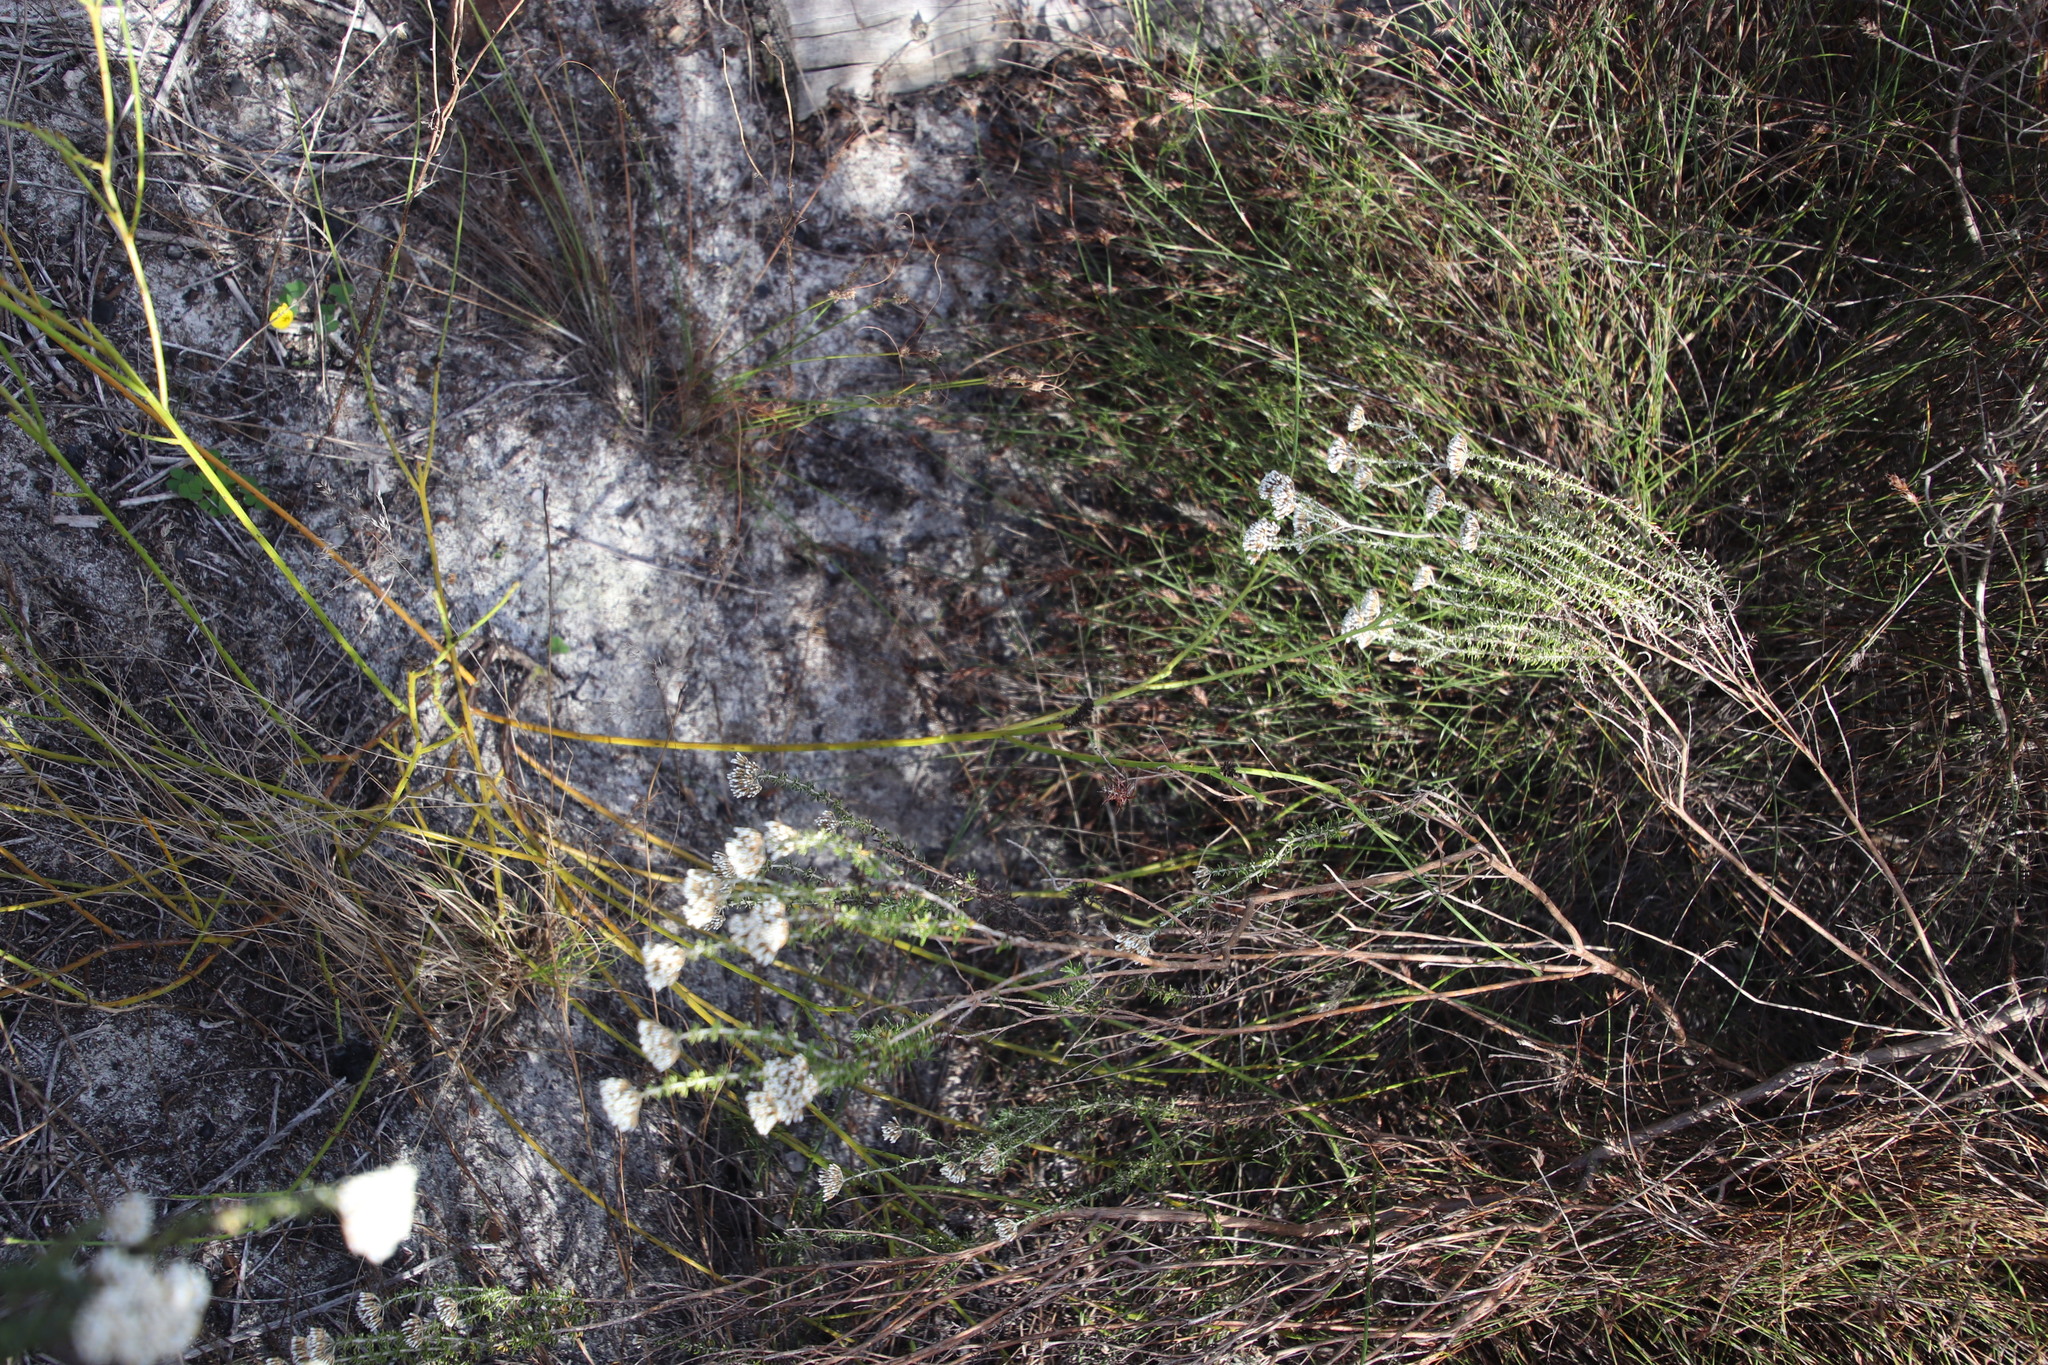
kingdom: Plantae
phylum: Tracheophyta
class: Magnoliopsida
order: Santalales
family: Thesiaceae
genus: Thesium
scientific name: Thesium aggregatum
